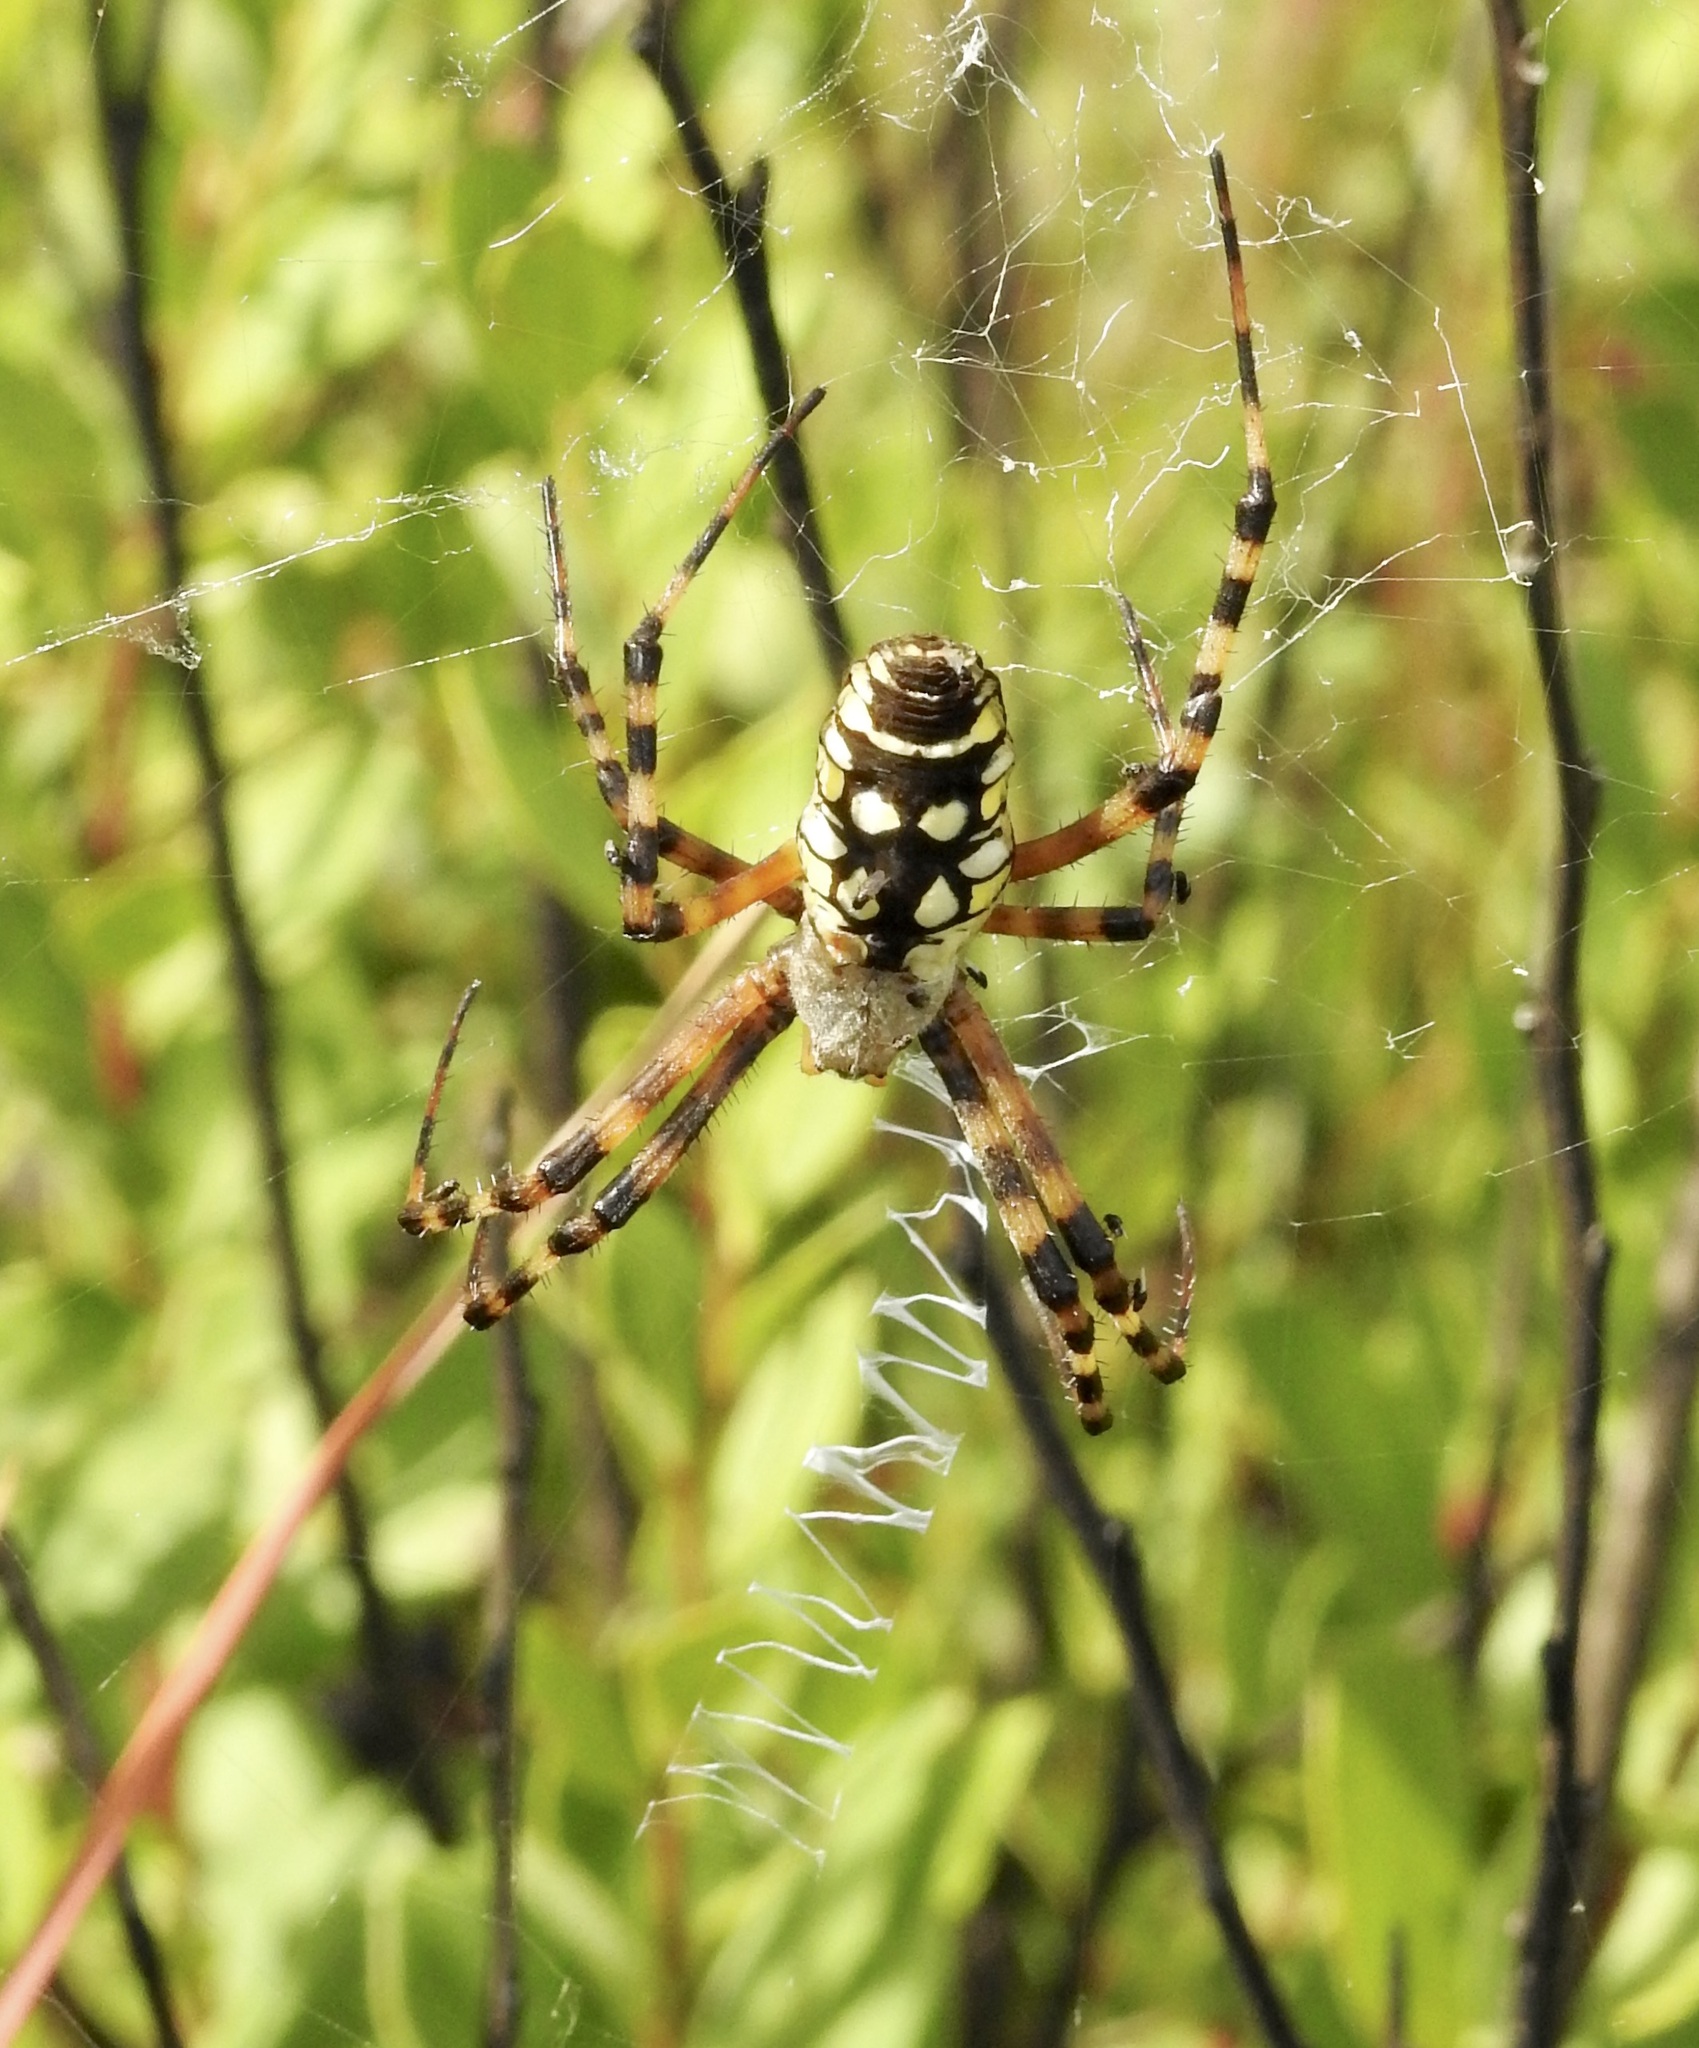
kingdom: Animalia
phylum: Arthropoda
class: Arachnida
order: Araneae
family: Araneidae
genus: Argiope
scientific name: Argiope aurantia
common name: Orb weavers
